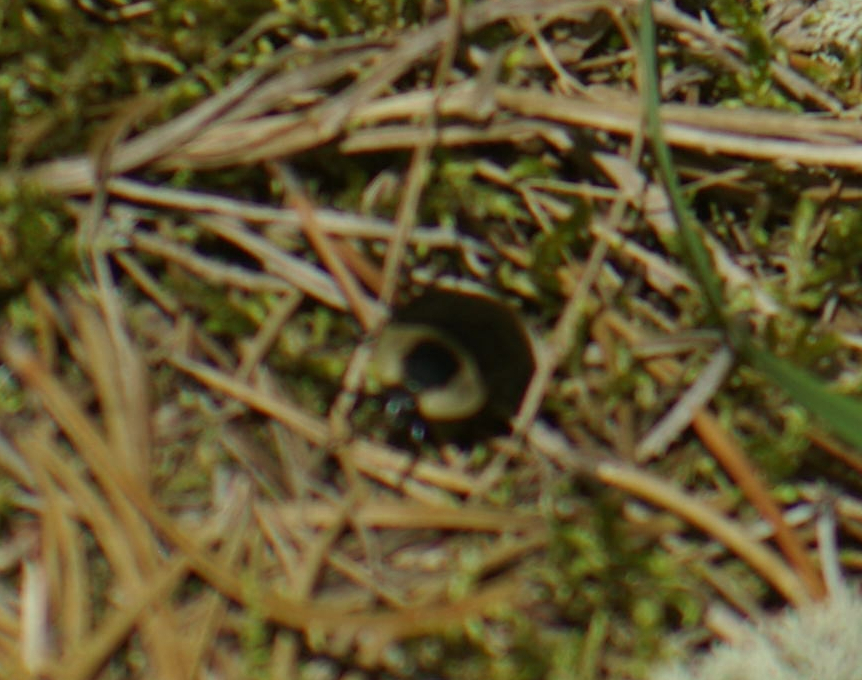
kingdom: Animalia
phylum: Arthropoda
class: Insecta
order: Coleoptera
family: Staphylinidae
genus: Necrophila
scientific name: Necrophila americana
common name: American carrion beetle
